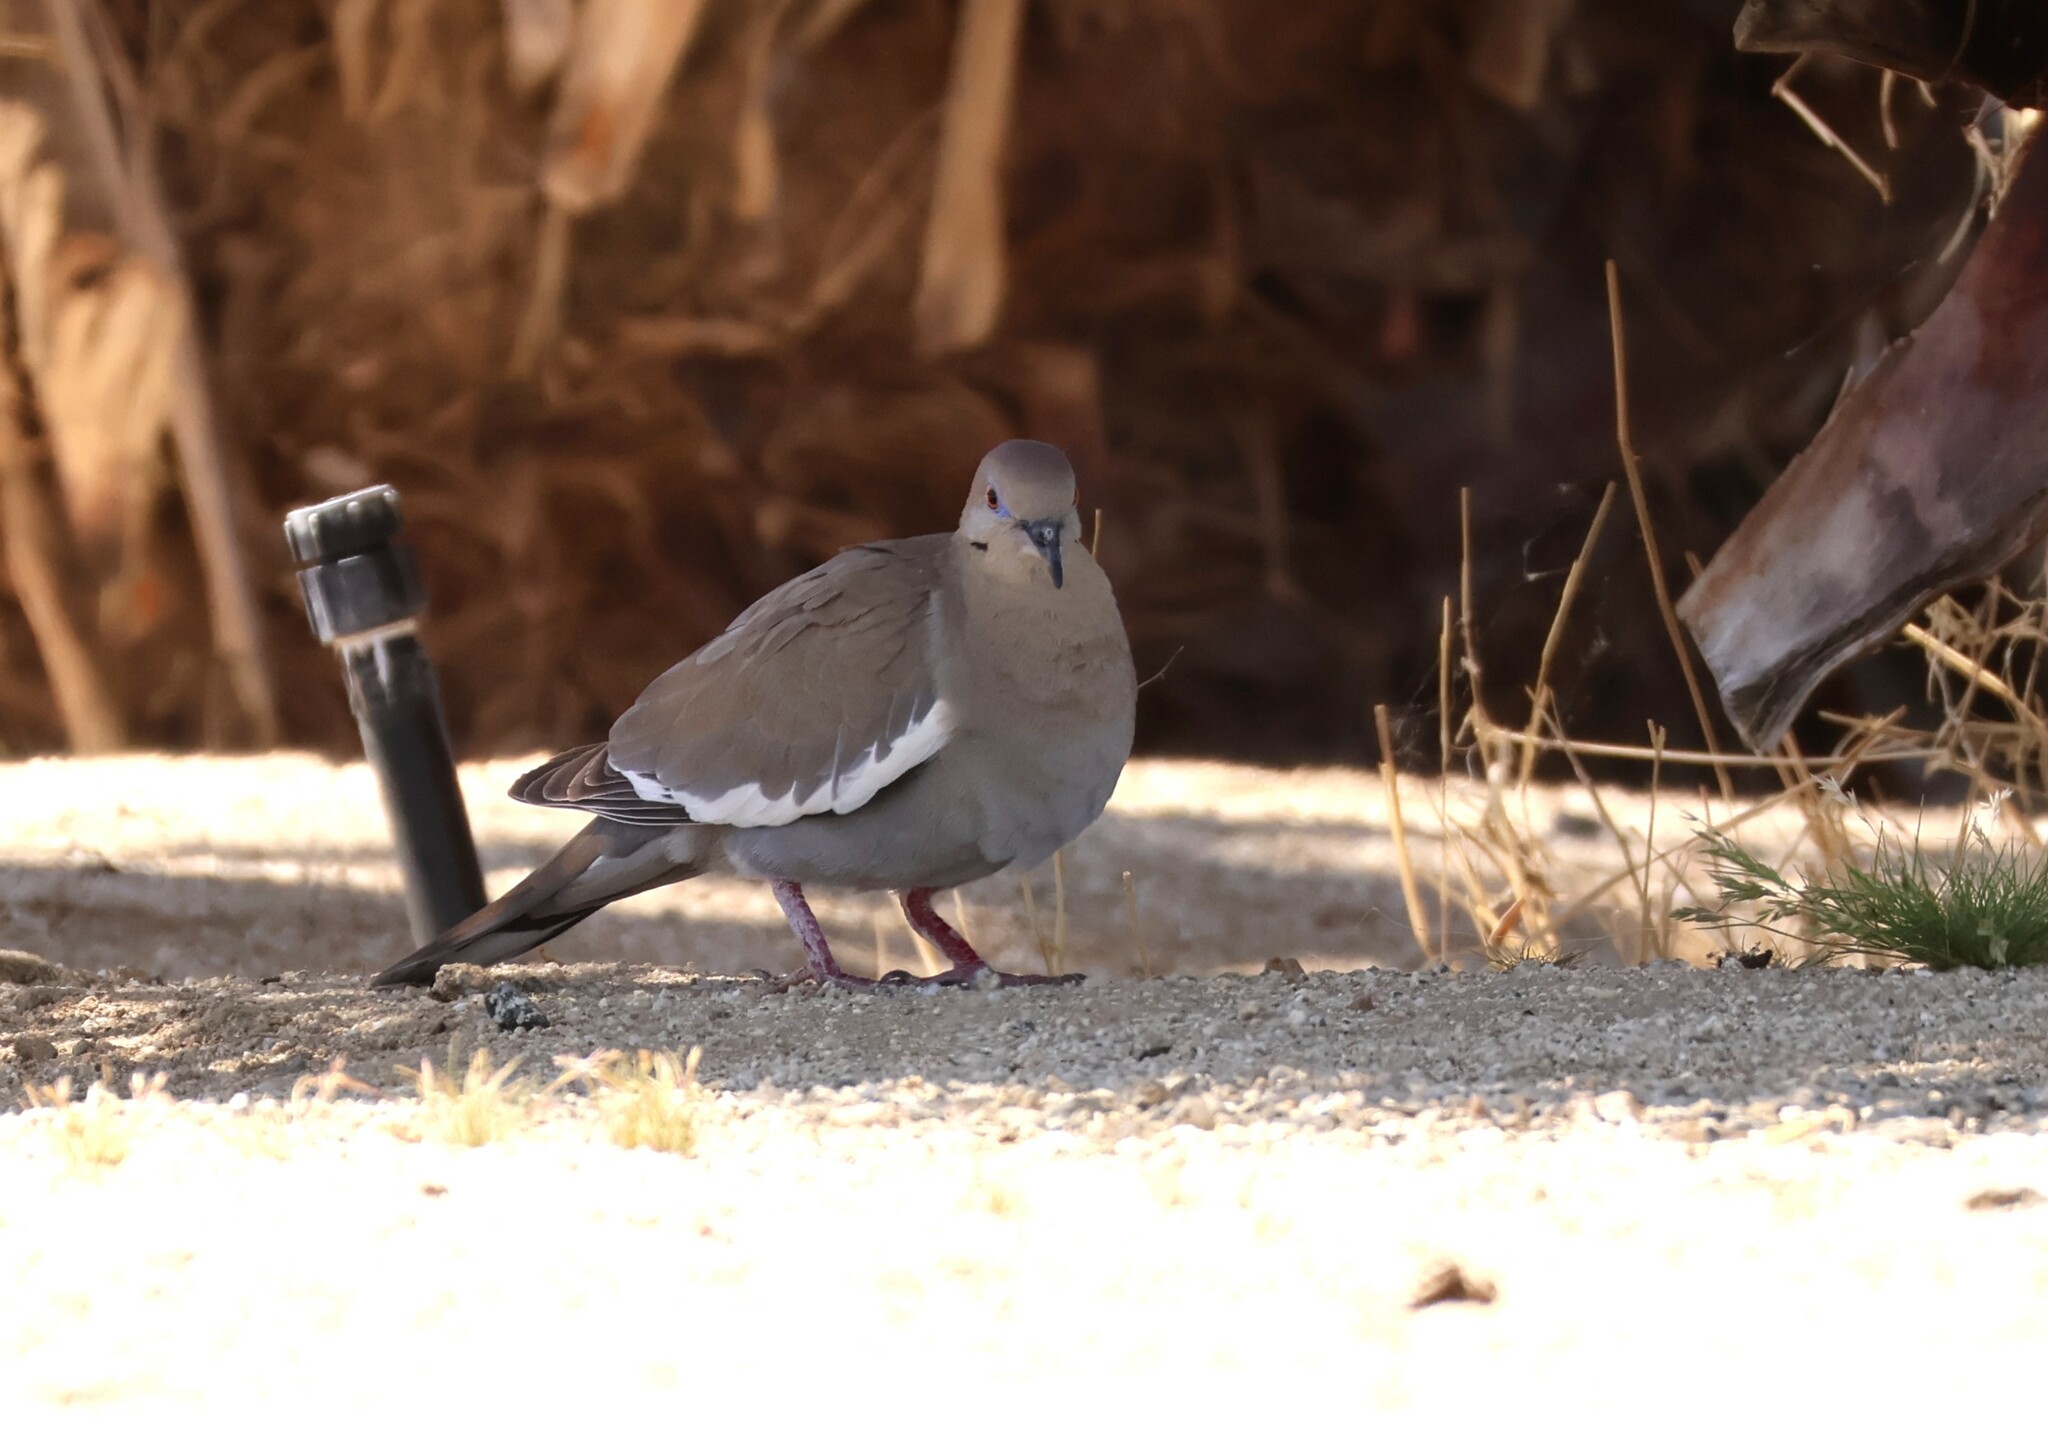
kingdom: Animalia
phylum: Chordata
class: Aves
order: Columbiformes
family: Columbidae
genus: Zenaida
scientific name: Zenaida asiatica
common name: White-winged dove
